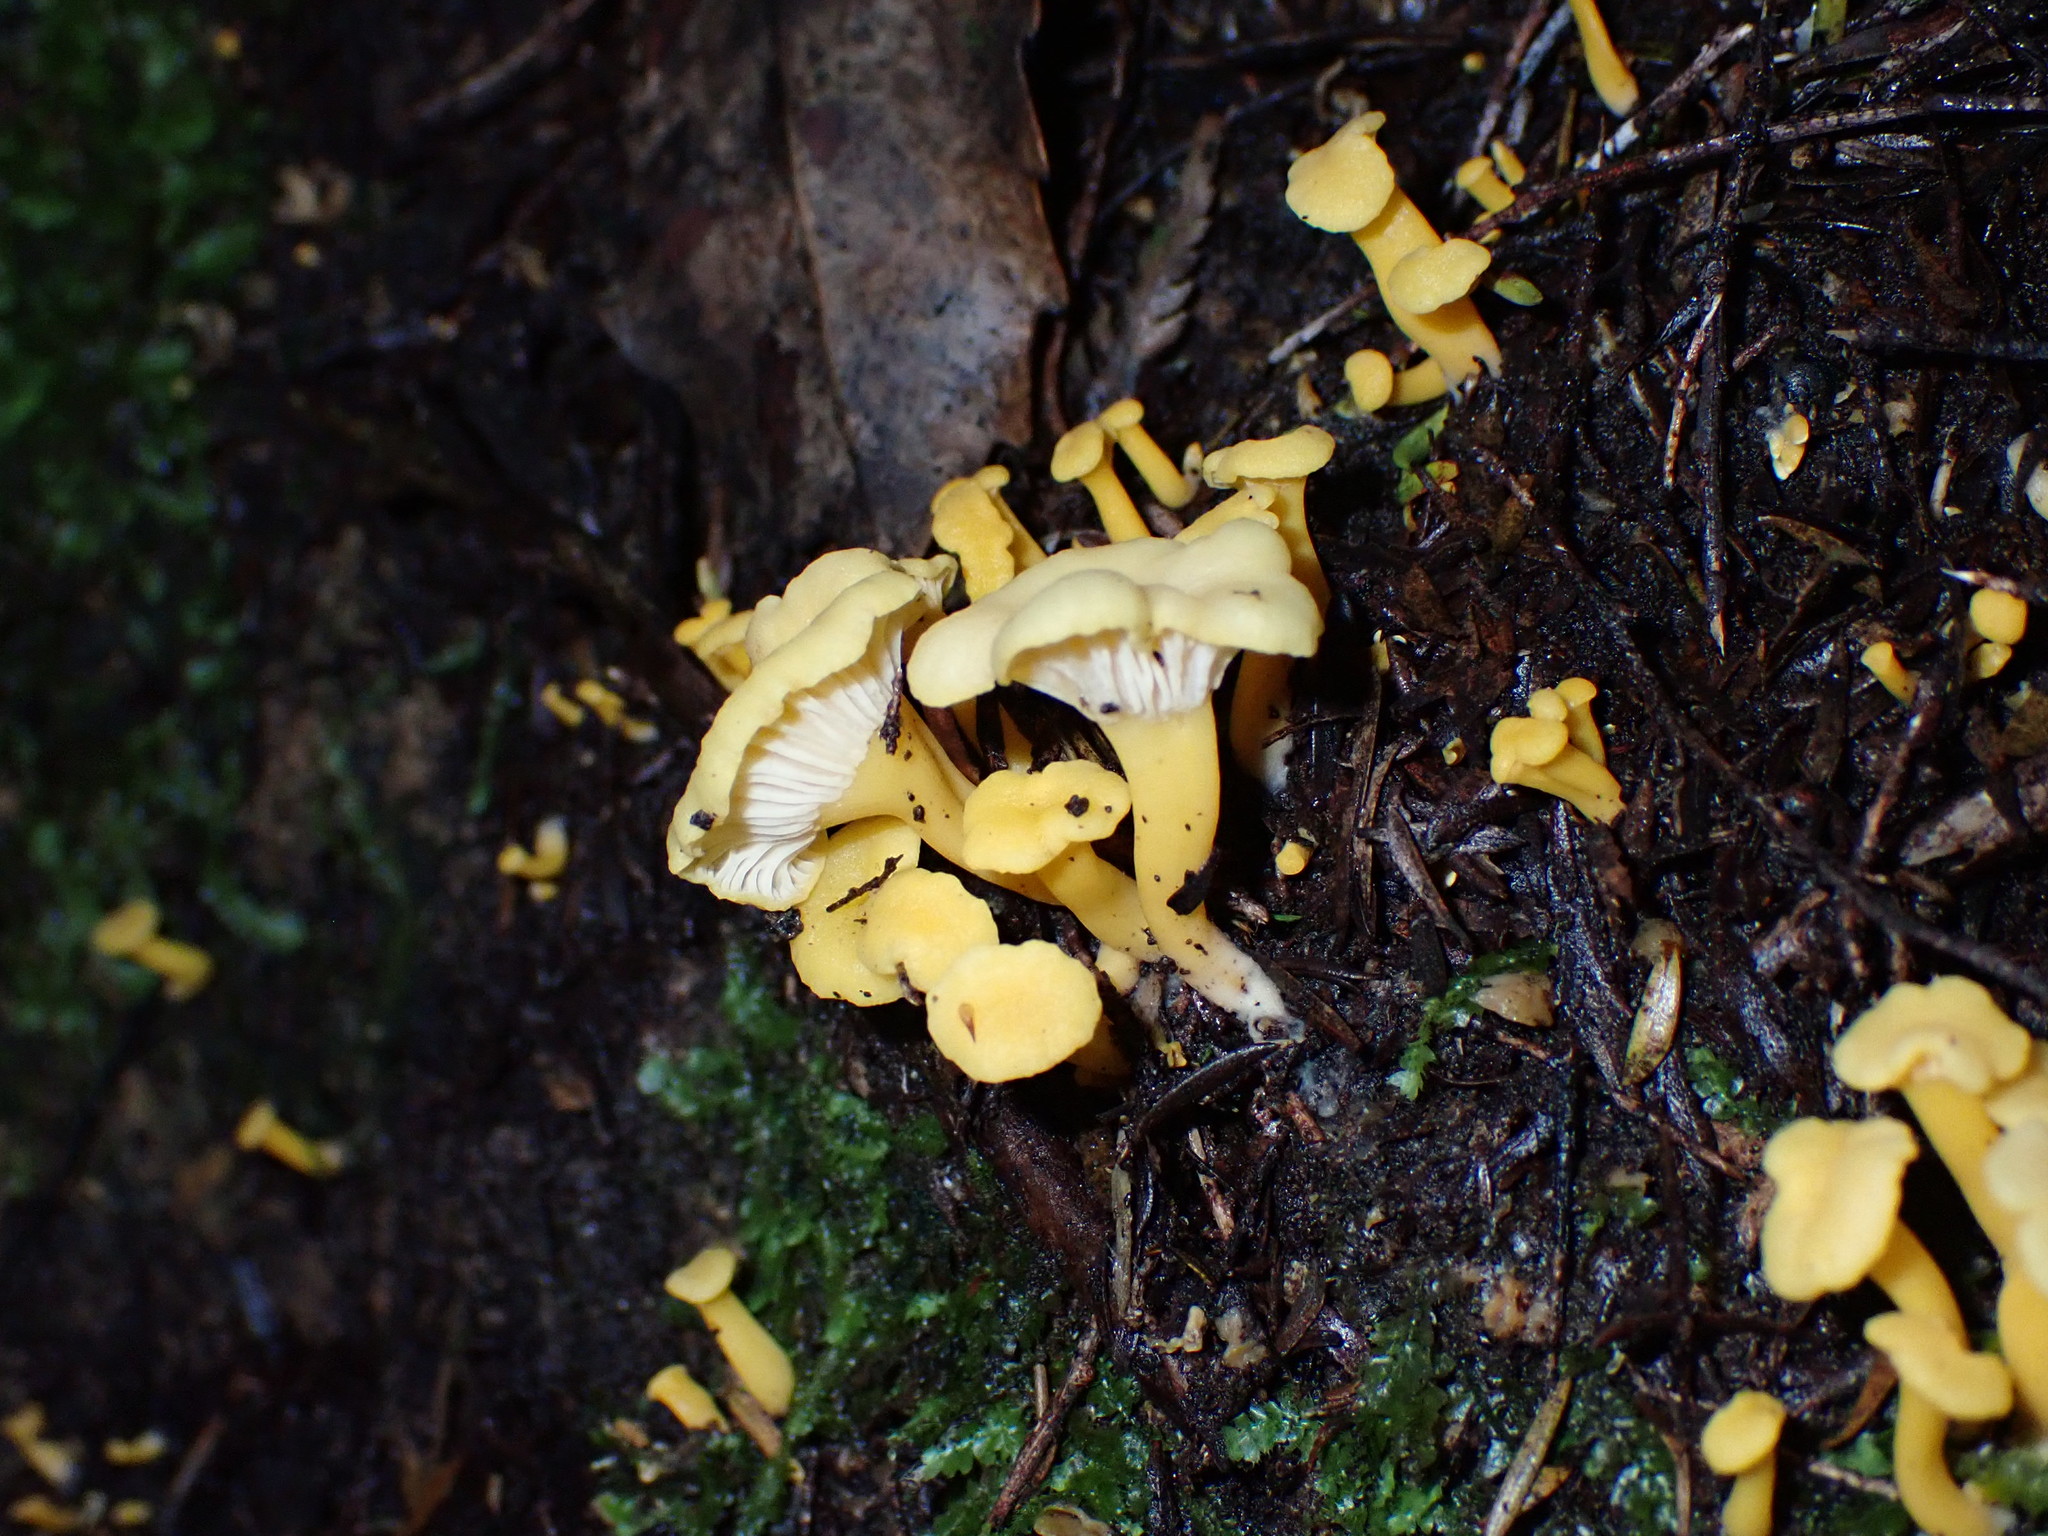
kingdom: Fungi
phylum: Basidiomycota
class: Agaricomycetes
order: Cantharellales
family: Hydnaceae
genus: Cantharellus
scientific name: Cantharellus wellingtonensis
